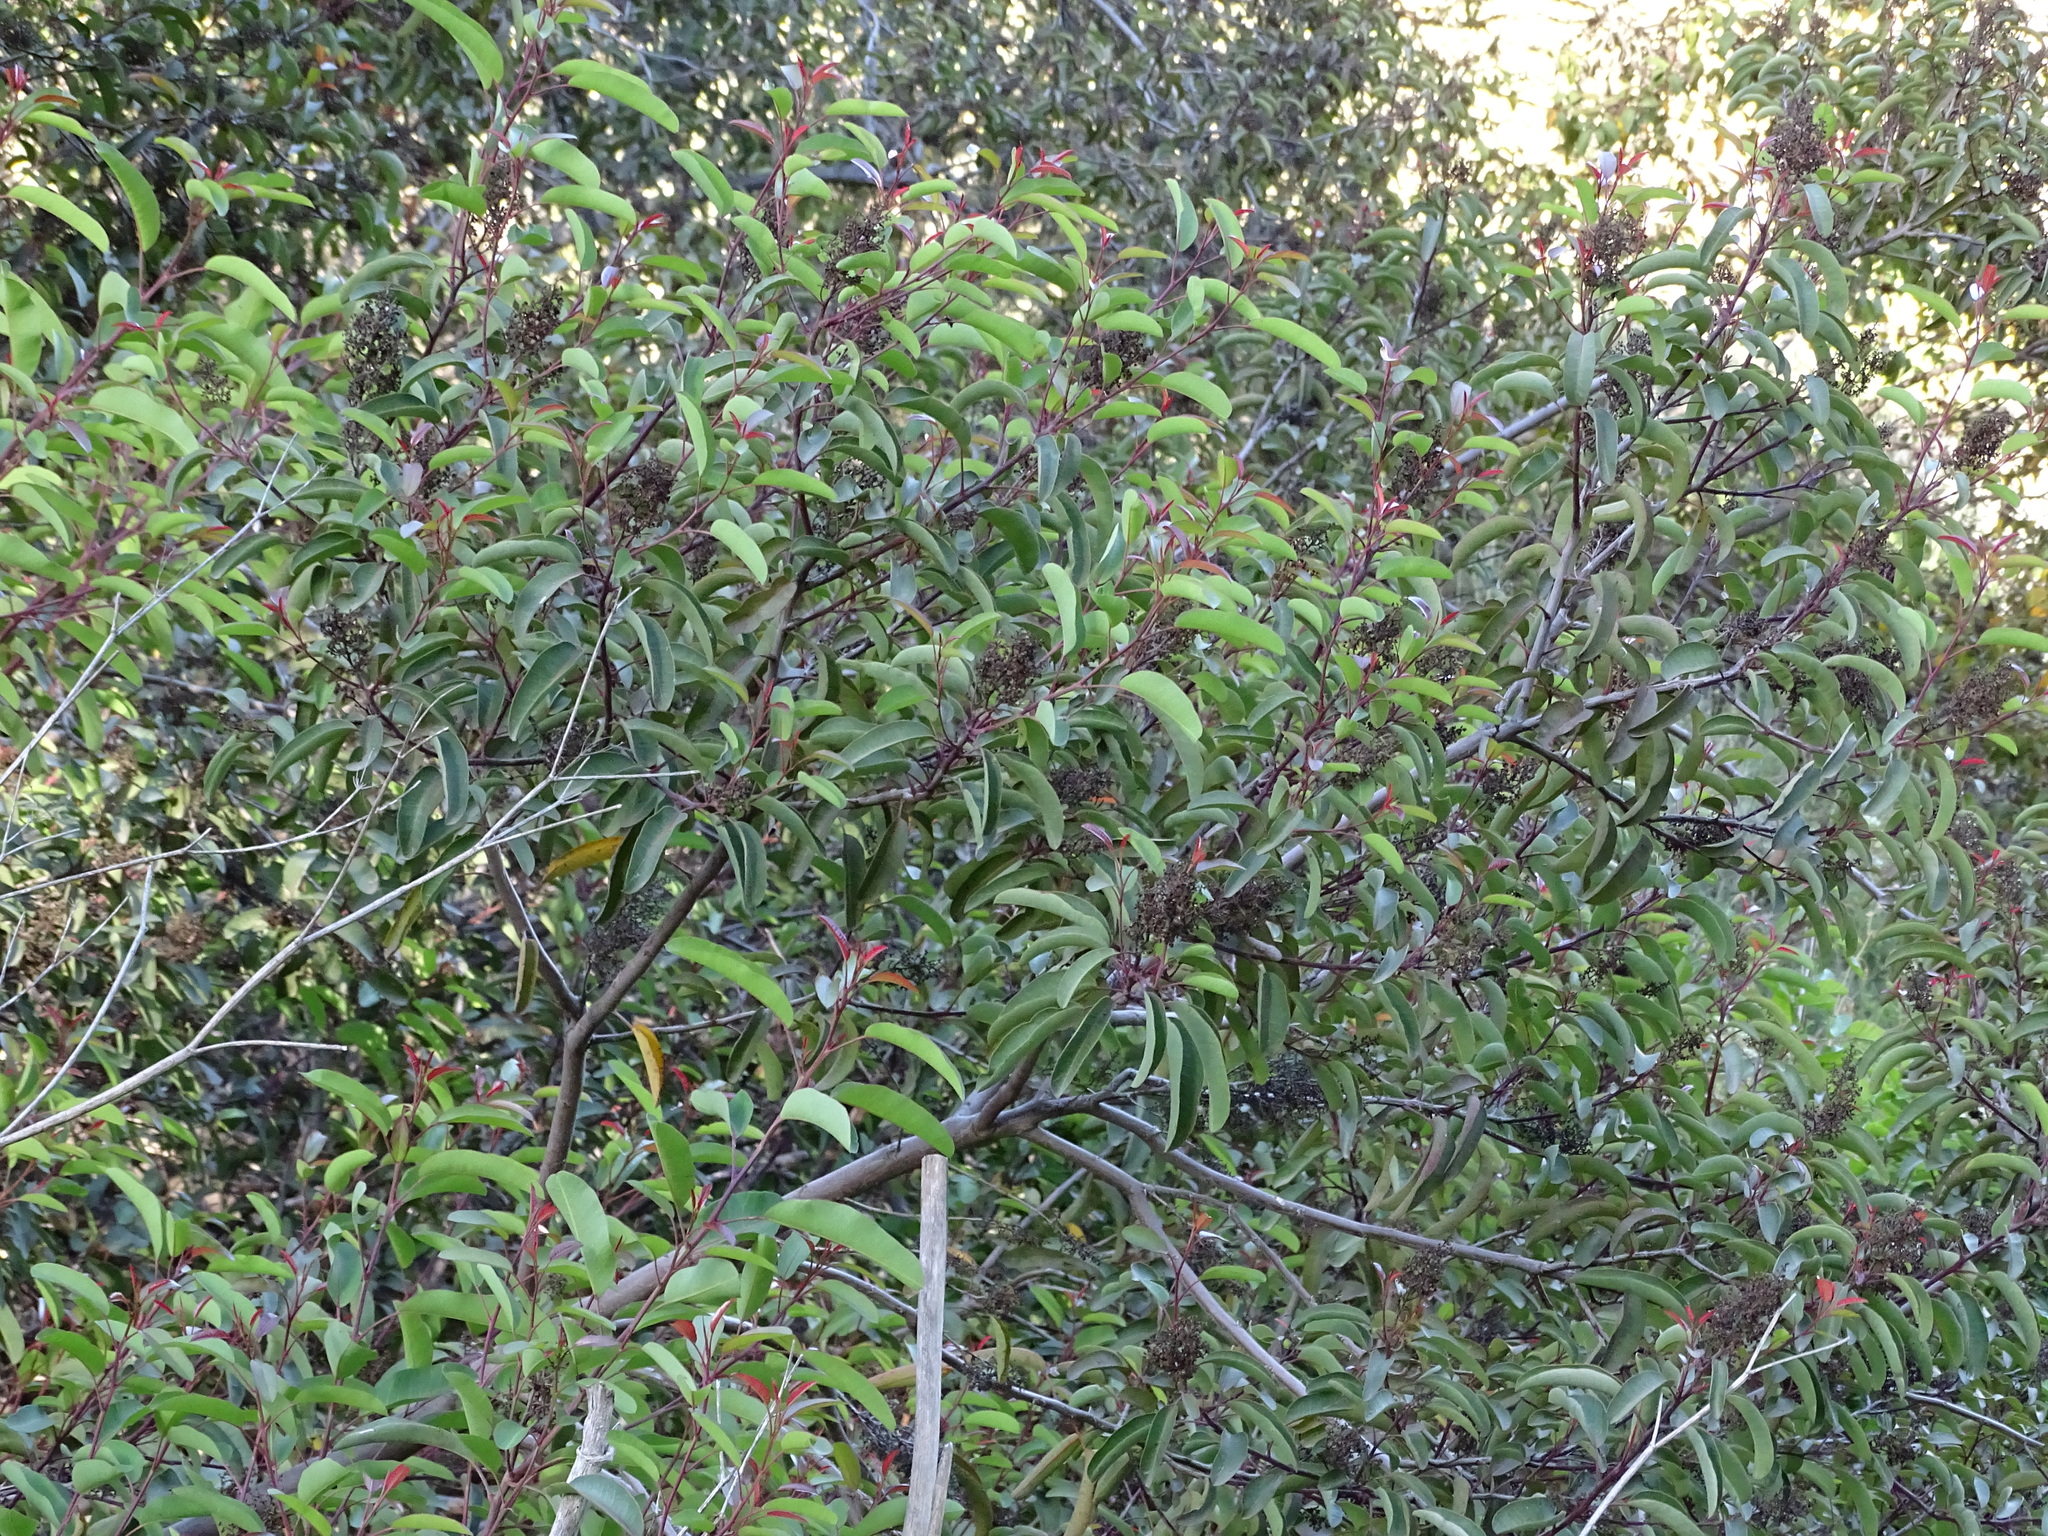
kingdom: Plantae
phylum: Tracheophyta
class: Magnoliopsida
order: Sapindales
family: Anacardiaceae
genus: Malosma
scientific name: Malosma laurina
